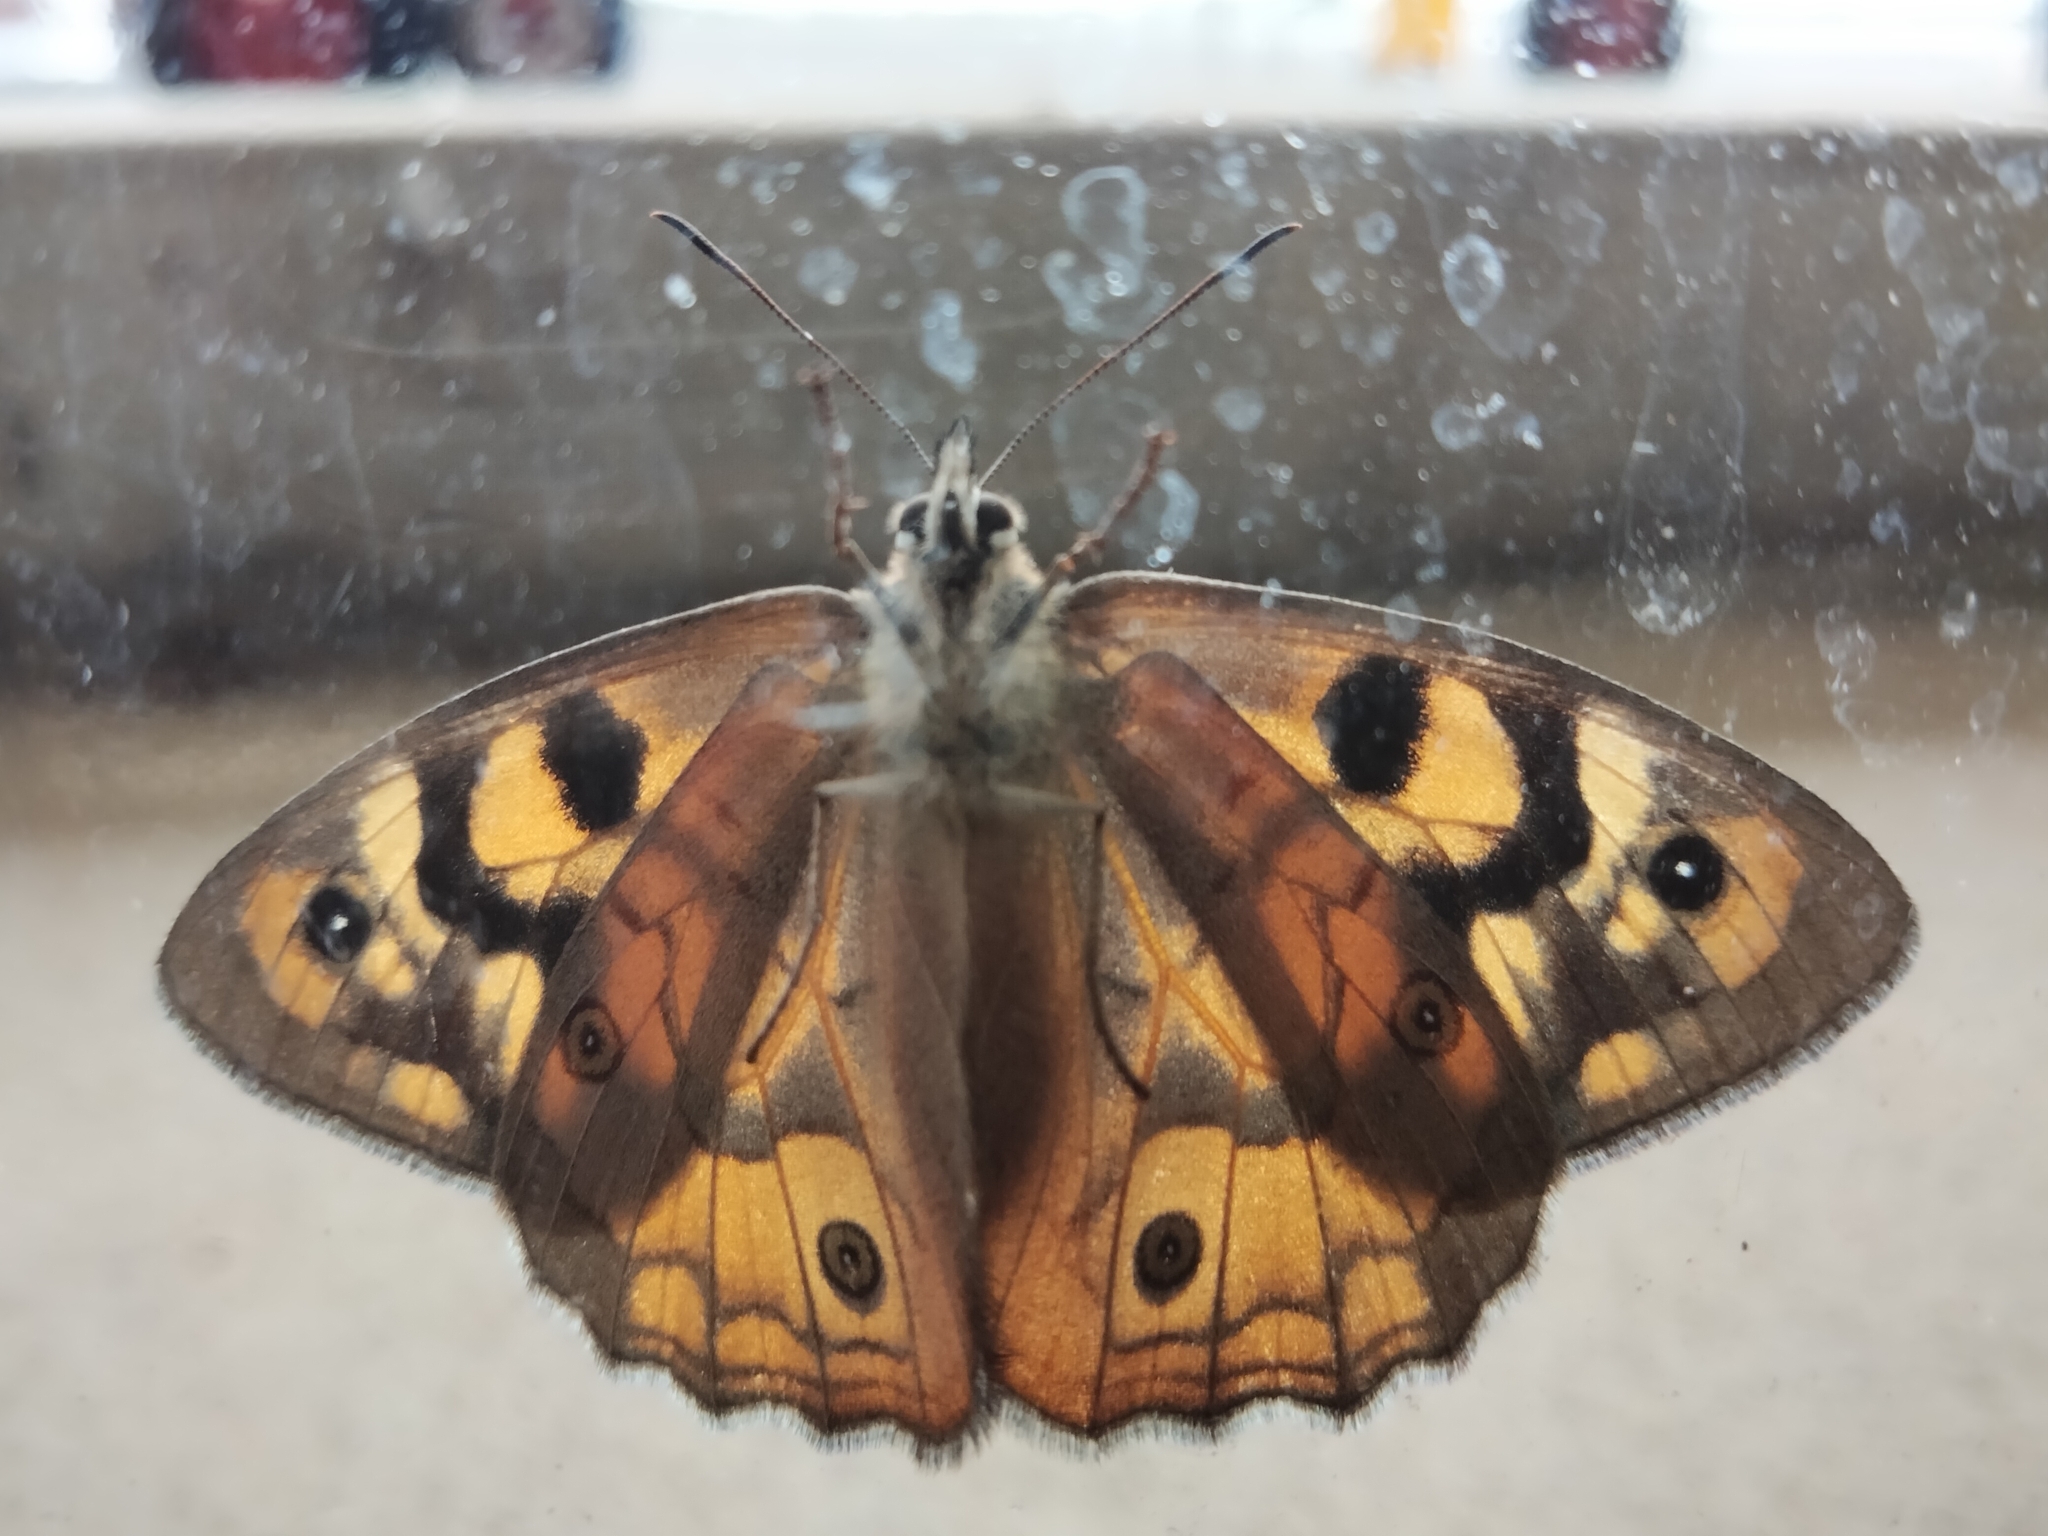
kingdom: Animalia
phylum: Arthropoda
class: Insecta
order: Lepidoptera
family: Nymphalidae
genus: Heteronympha
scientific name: Heteronympha penelope
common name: Shouldered brown
